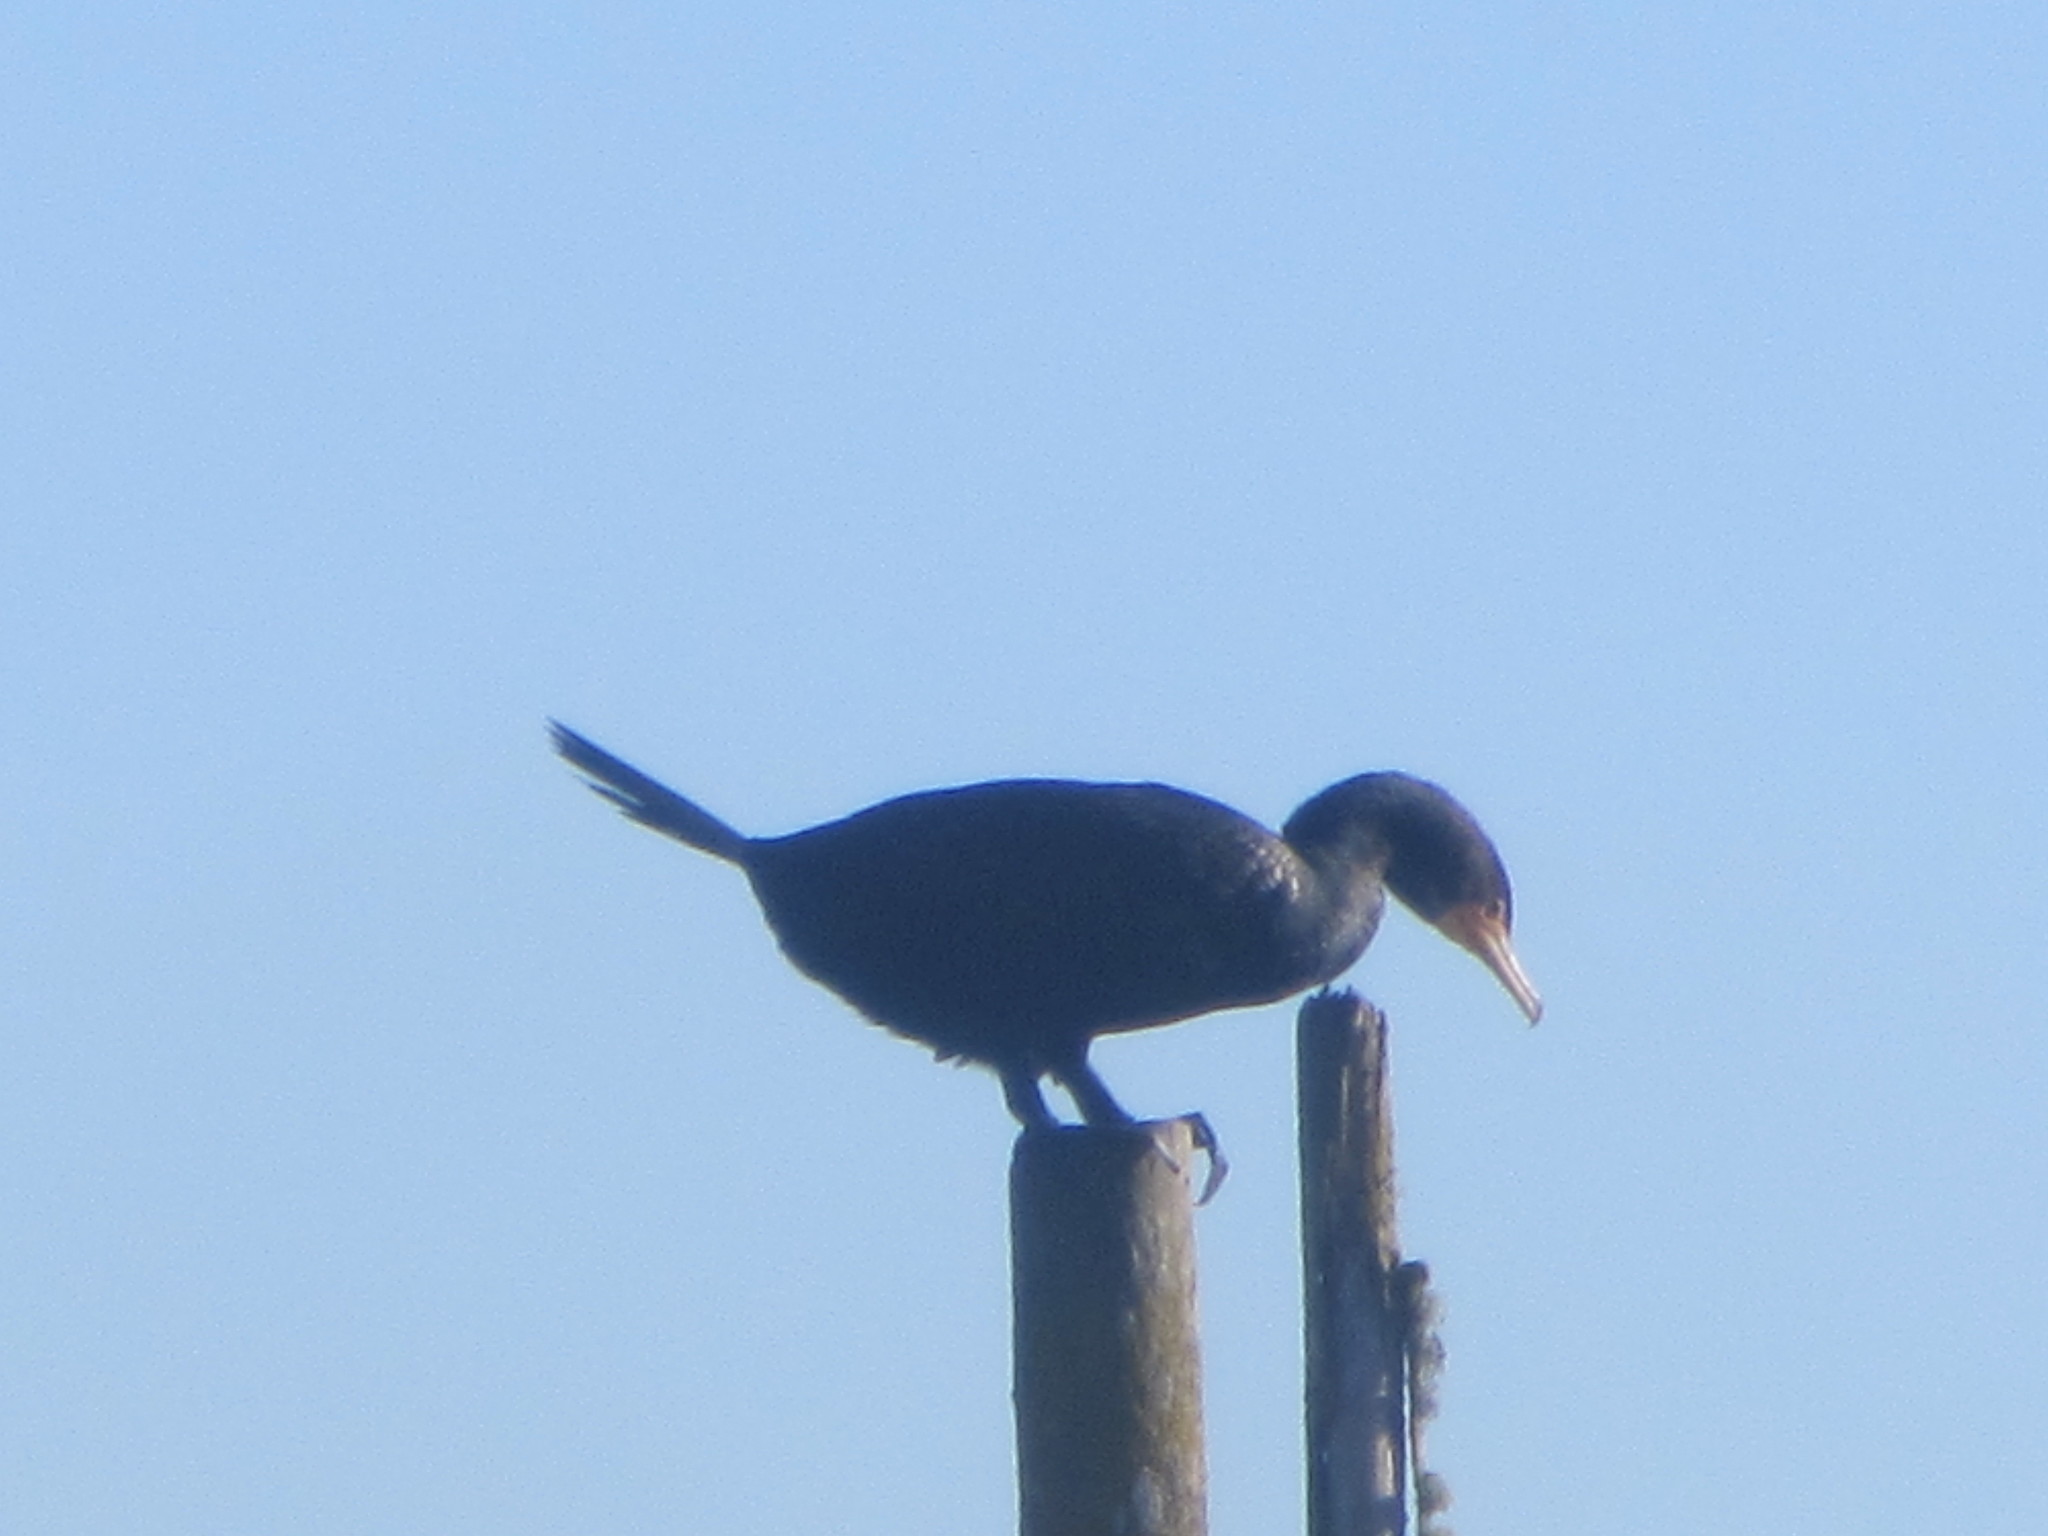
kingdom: Animalia
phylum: Chordata
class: Aves
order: Suliformes
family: Phalacrocoracidae
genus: Phalacrocorax
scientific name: Phalacrocorax auritus
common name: Double-crested cormorant
